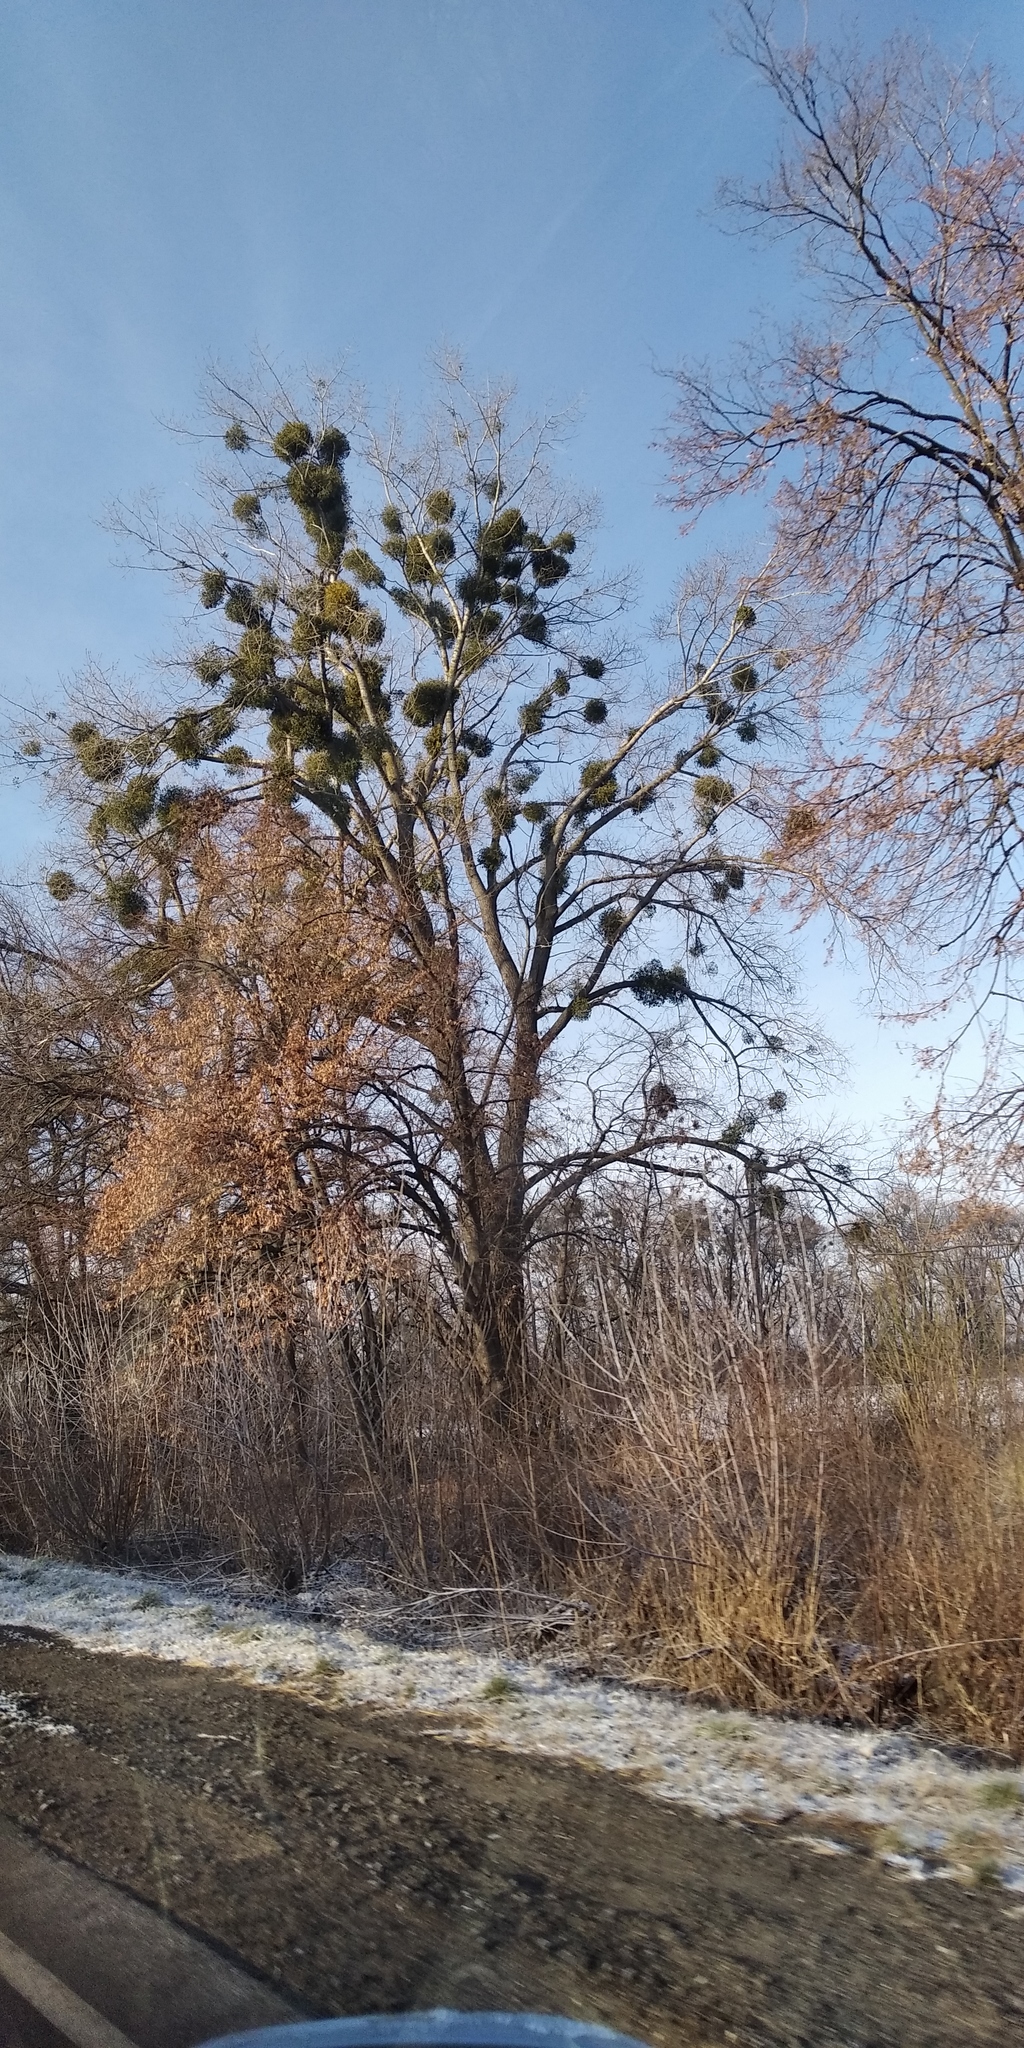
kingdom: Plantae
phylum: Tracheophyta
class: Magnoliopsida
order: Santalales
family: Viscaceae
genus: Viscum
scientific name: Viscum album
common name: Mistletoe
